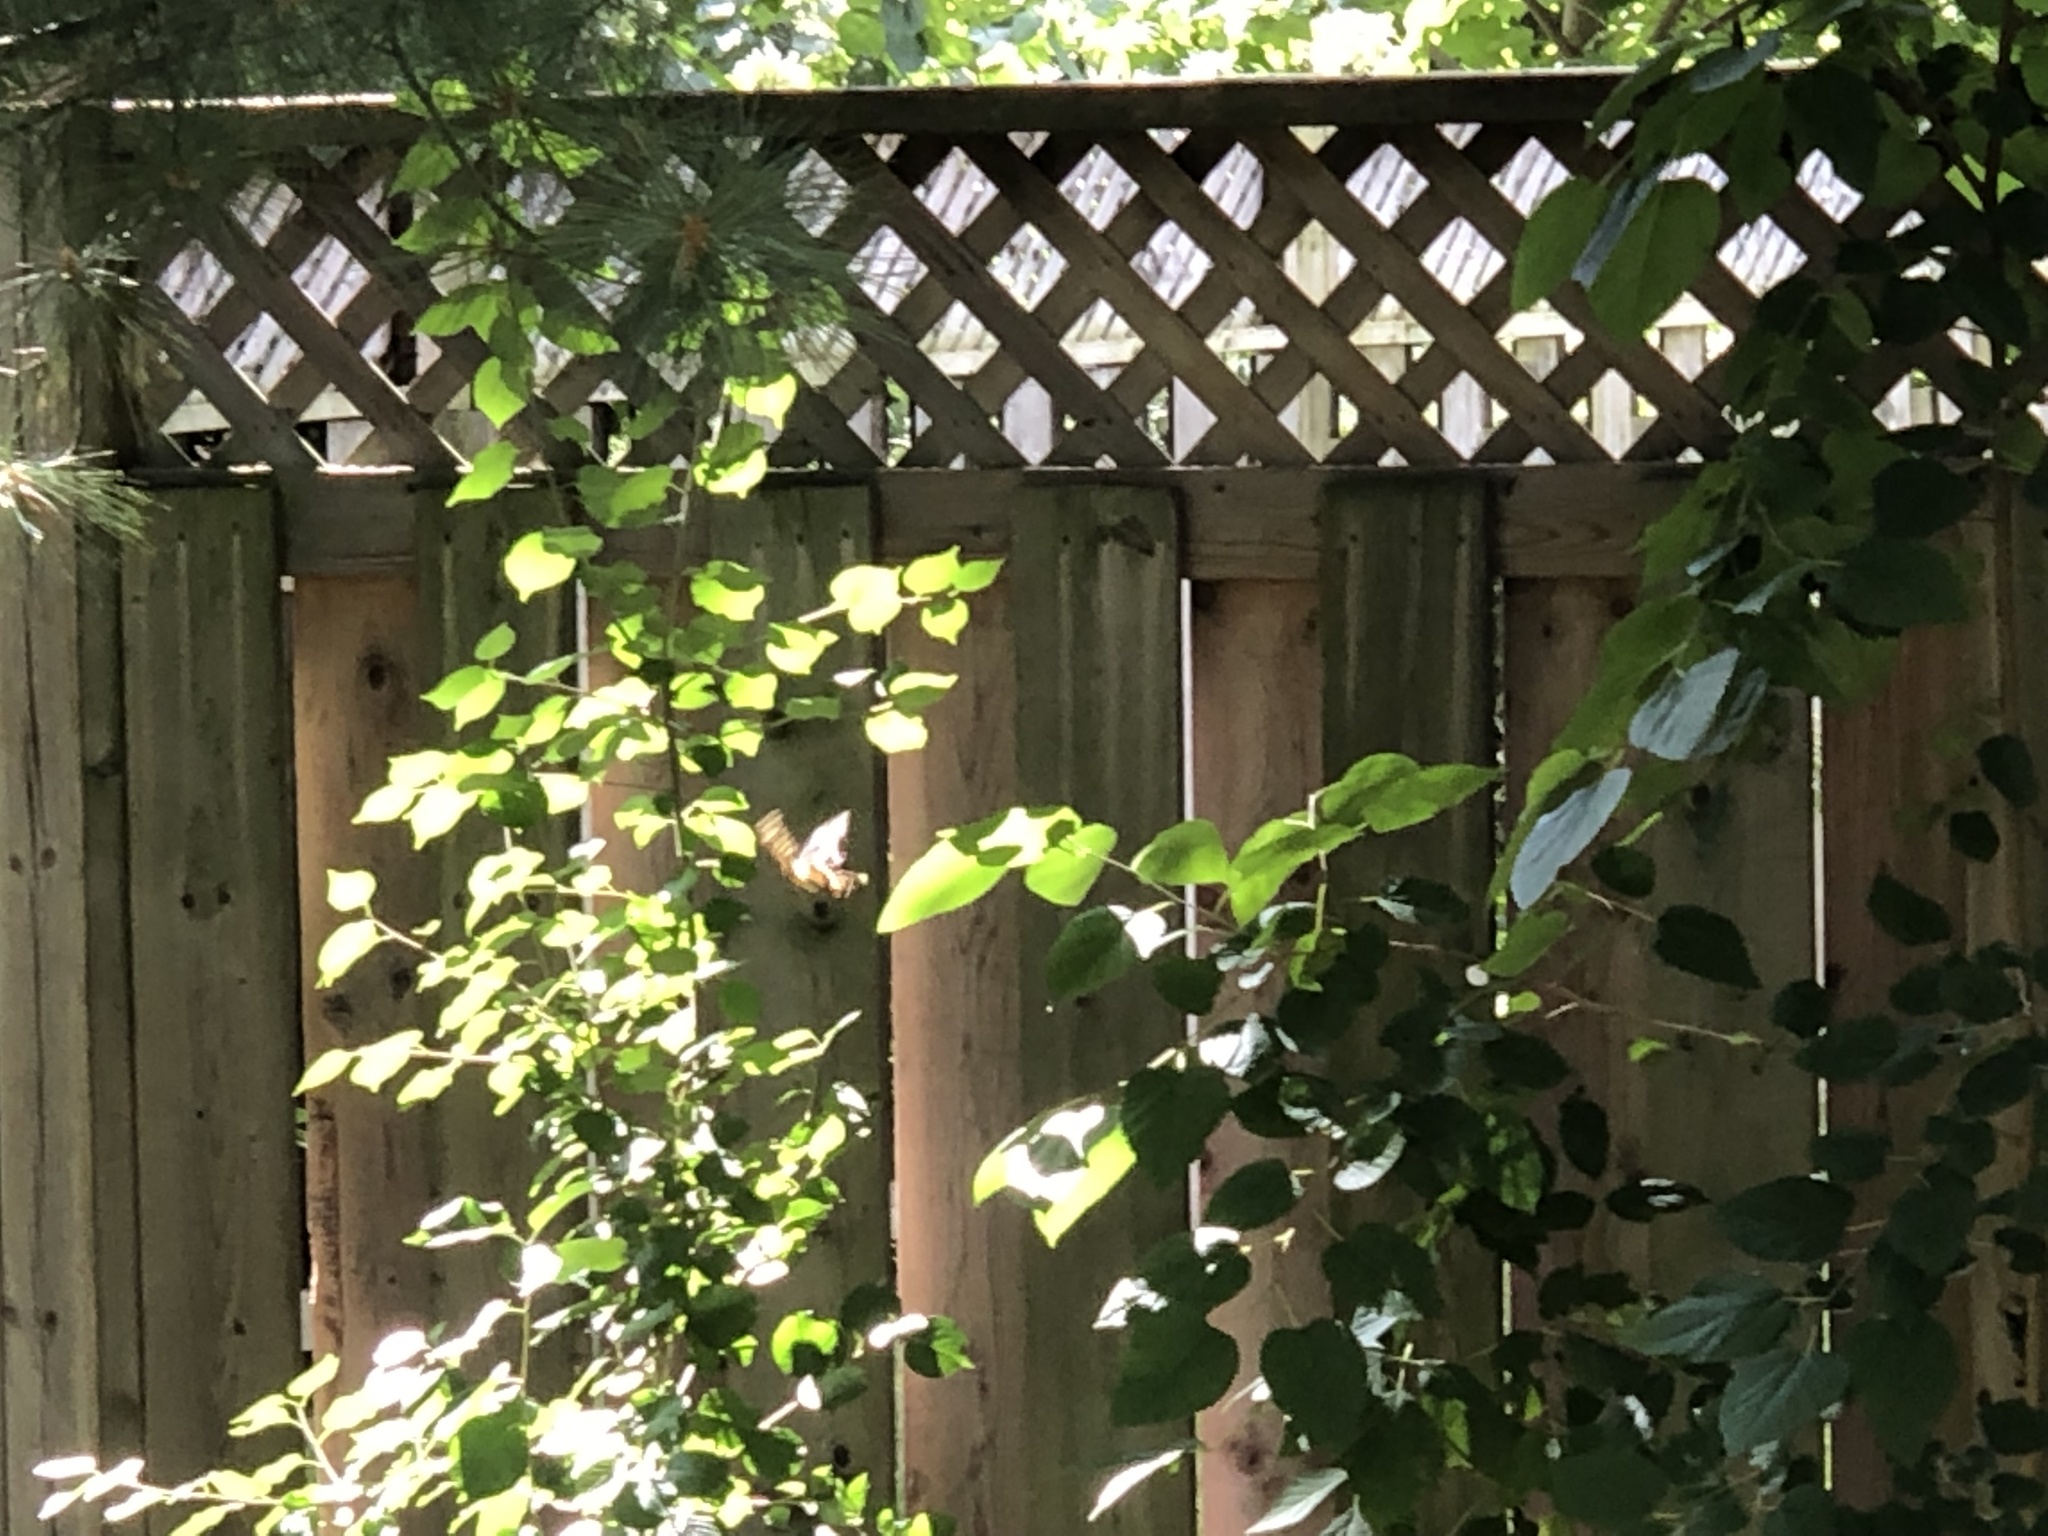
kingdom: Animalia
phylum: Arthropoda
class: Insecta
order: Lepidoptera
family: Papilionidae
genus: Papilio
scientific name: Papilio cresphontes
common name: Giant swallowtail
